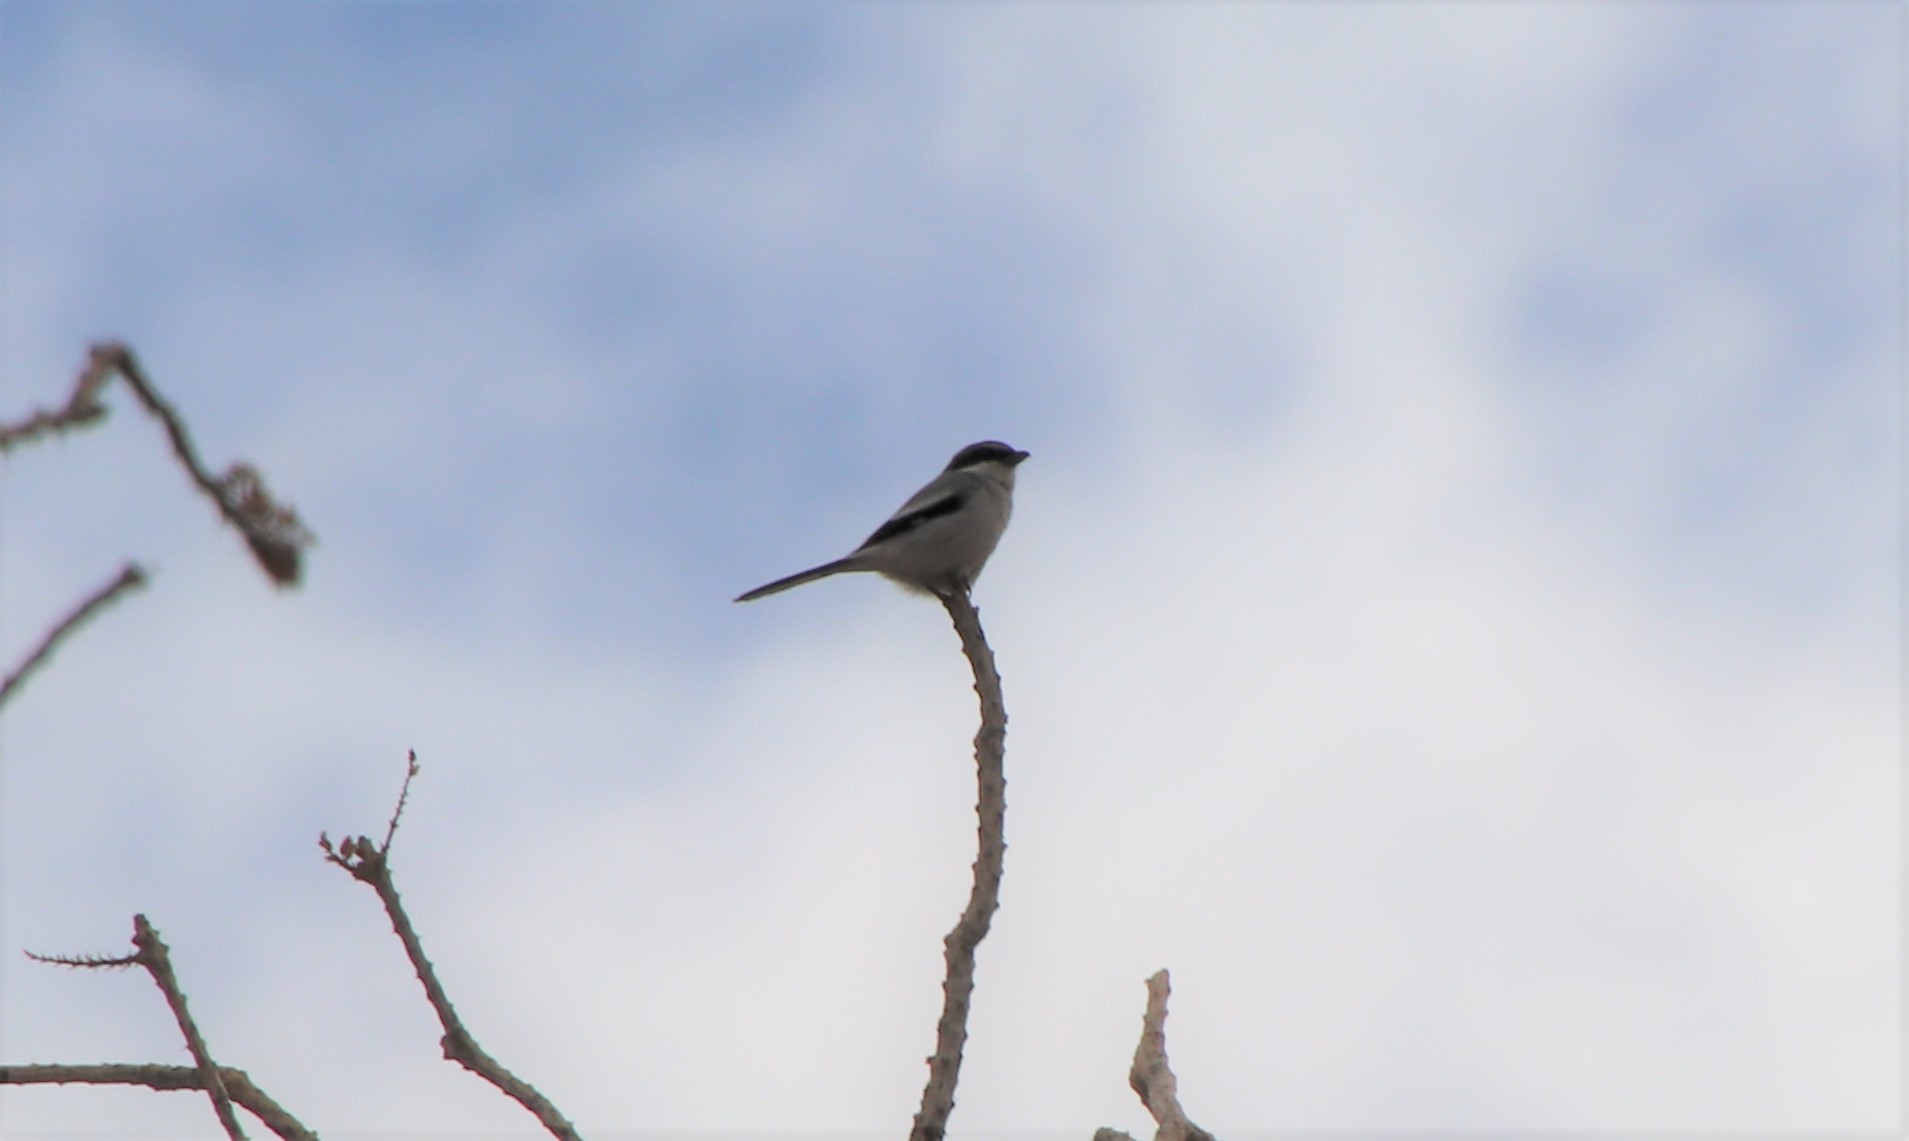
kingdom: Animalia
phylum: Chordata
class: Aves
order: Passeriformes
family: Laniidae
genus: Lanius
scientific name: Lanius ludovicianus
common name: Loggerhead shrike
